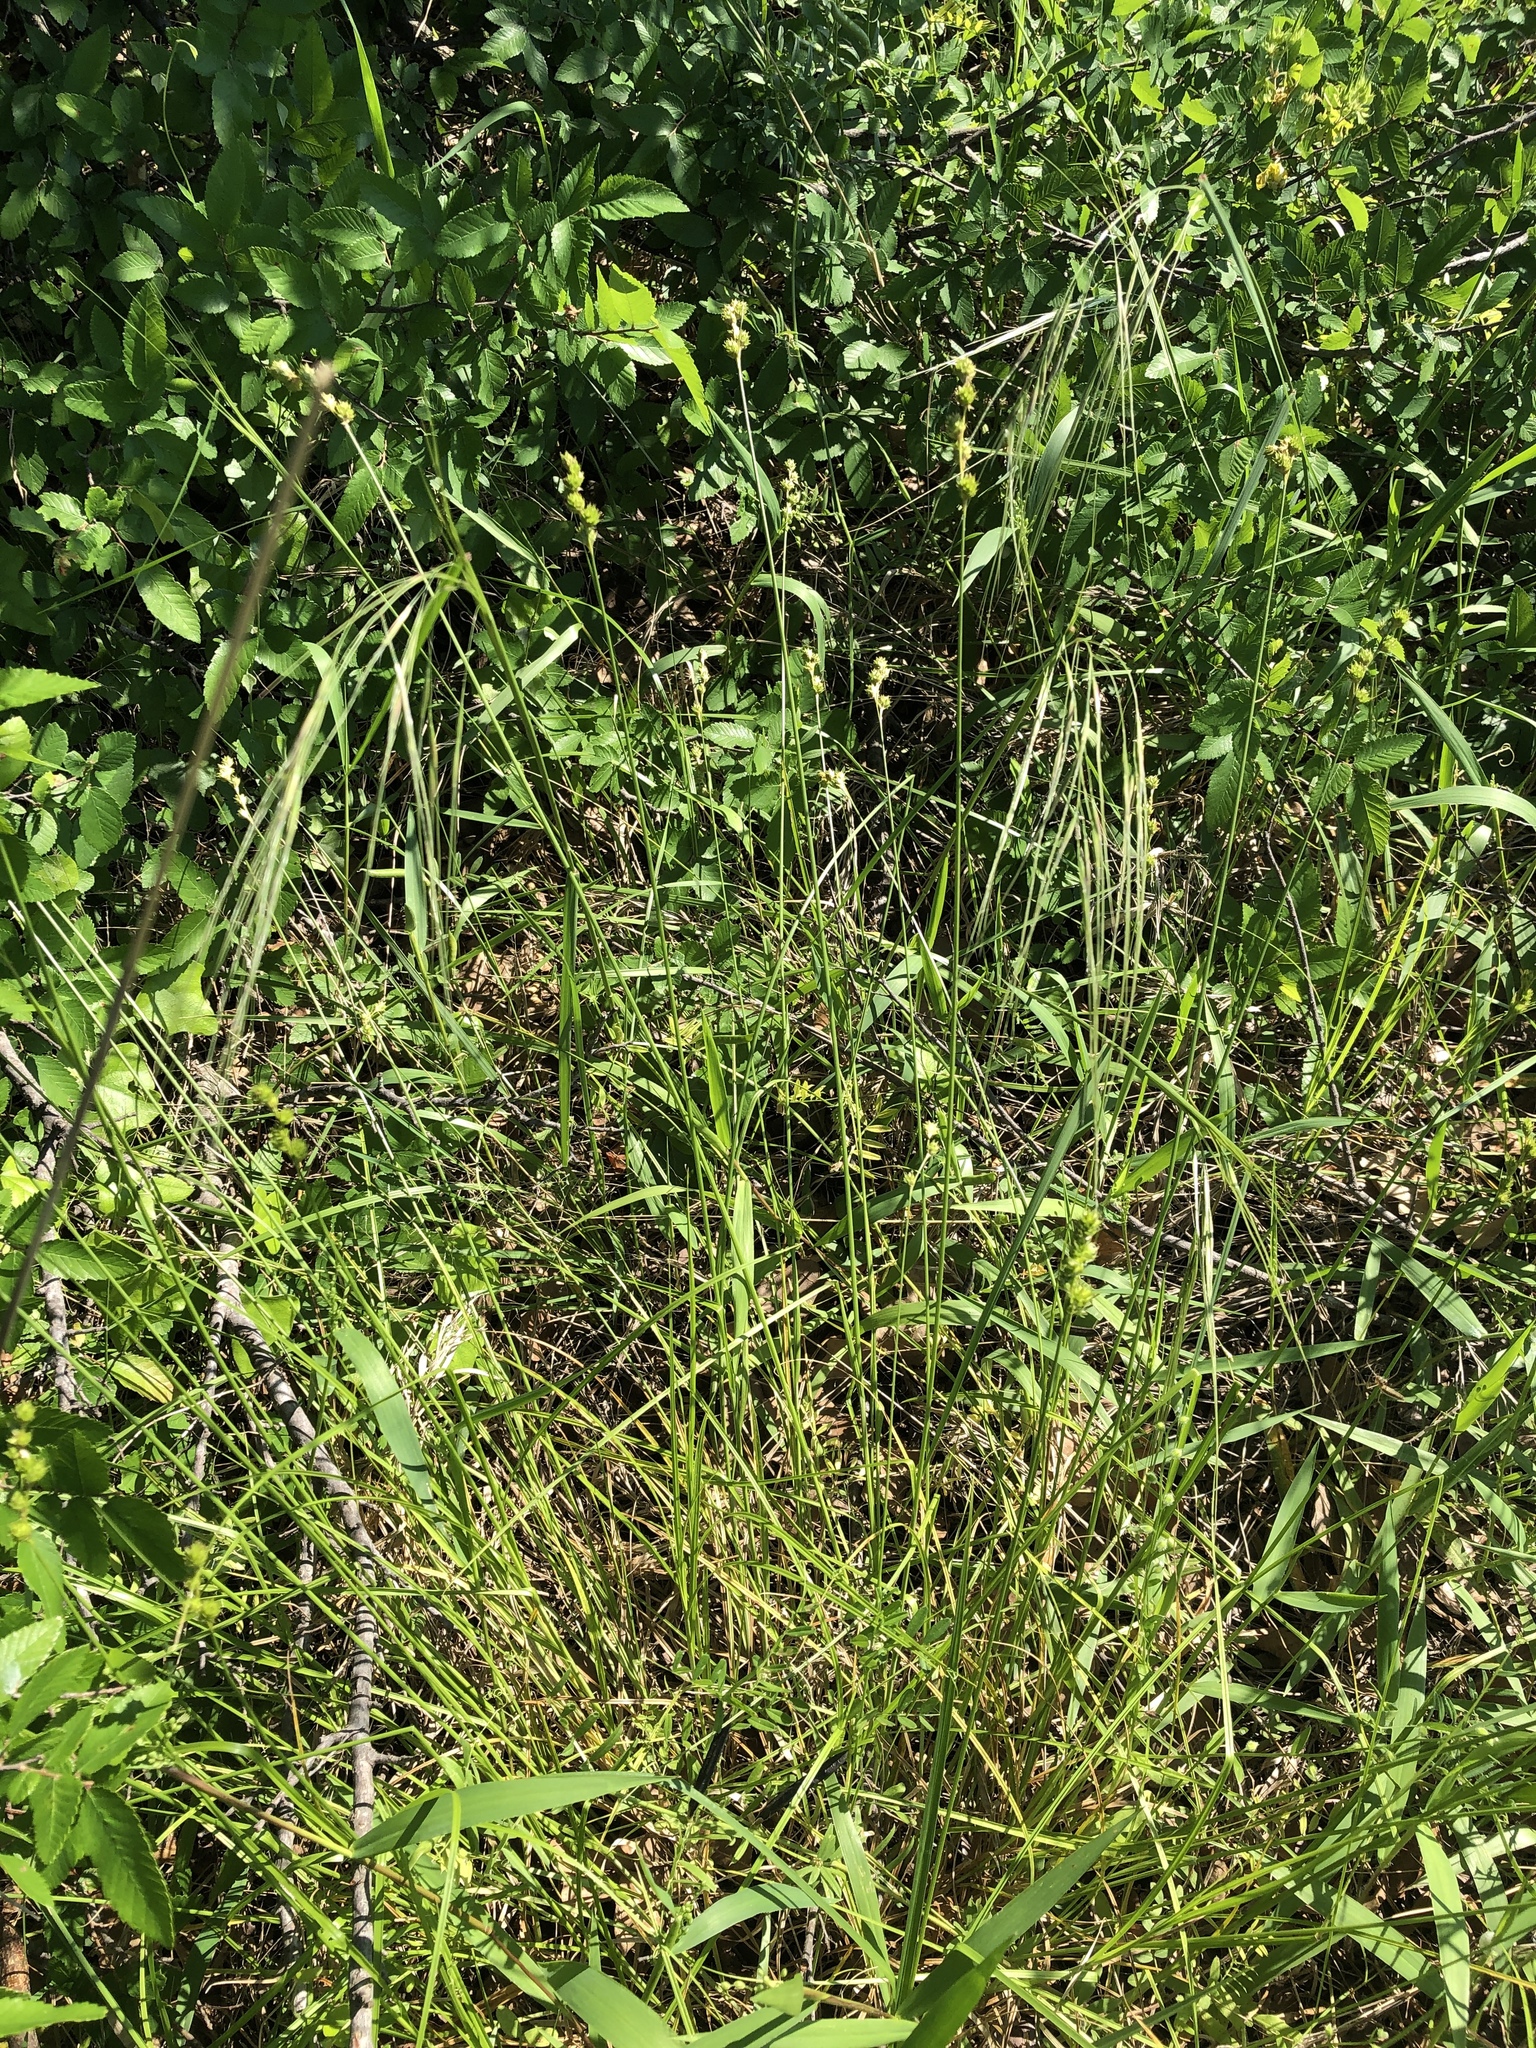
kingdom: Plantae
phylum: Tracheophyta
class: Liliopsida
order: Poales
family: Cyperaceae
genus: Carex
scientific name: Carex tetrastachya
